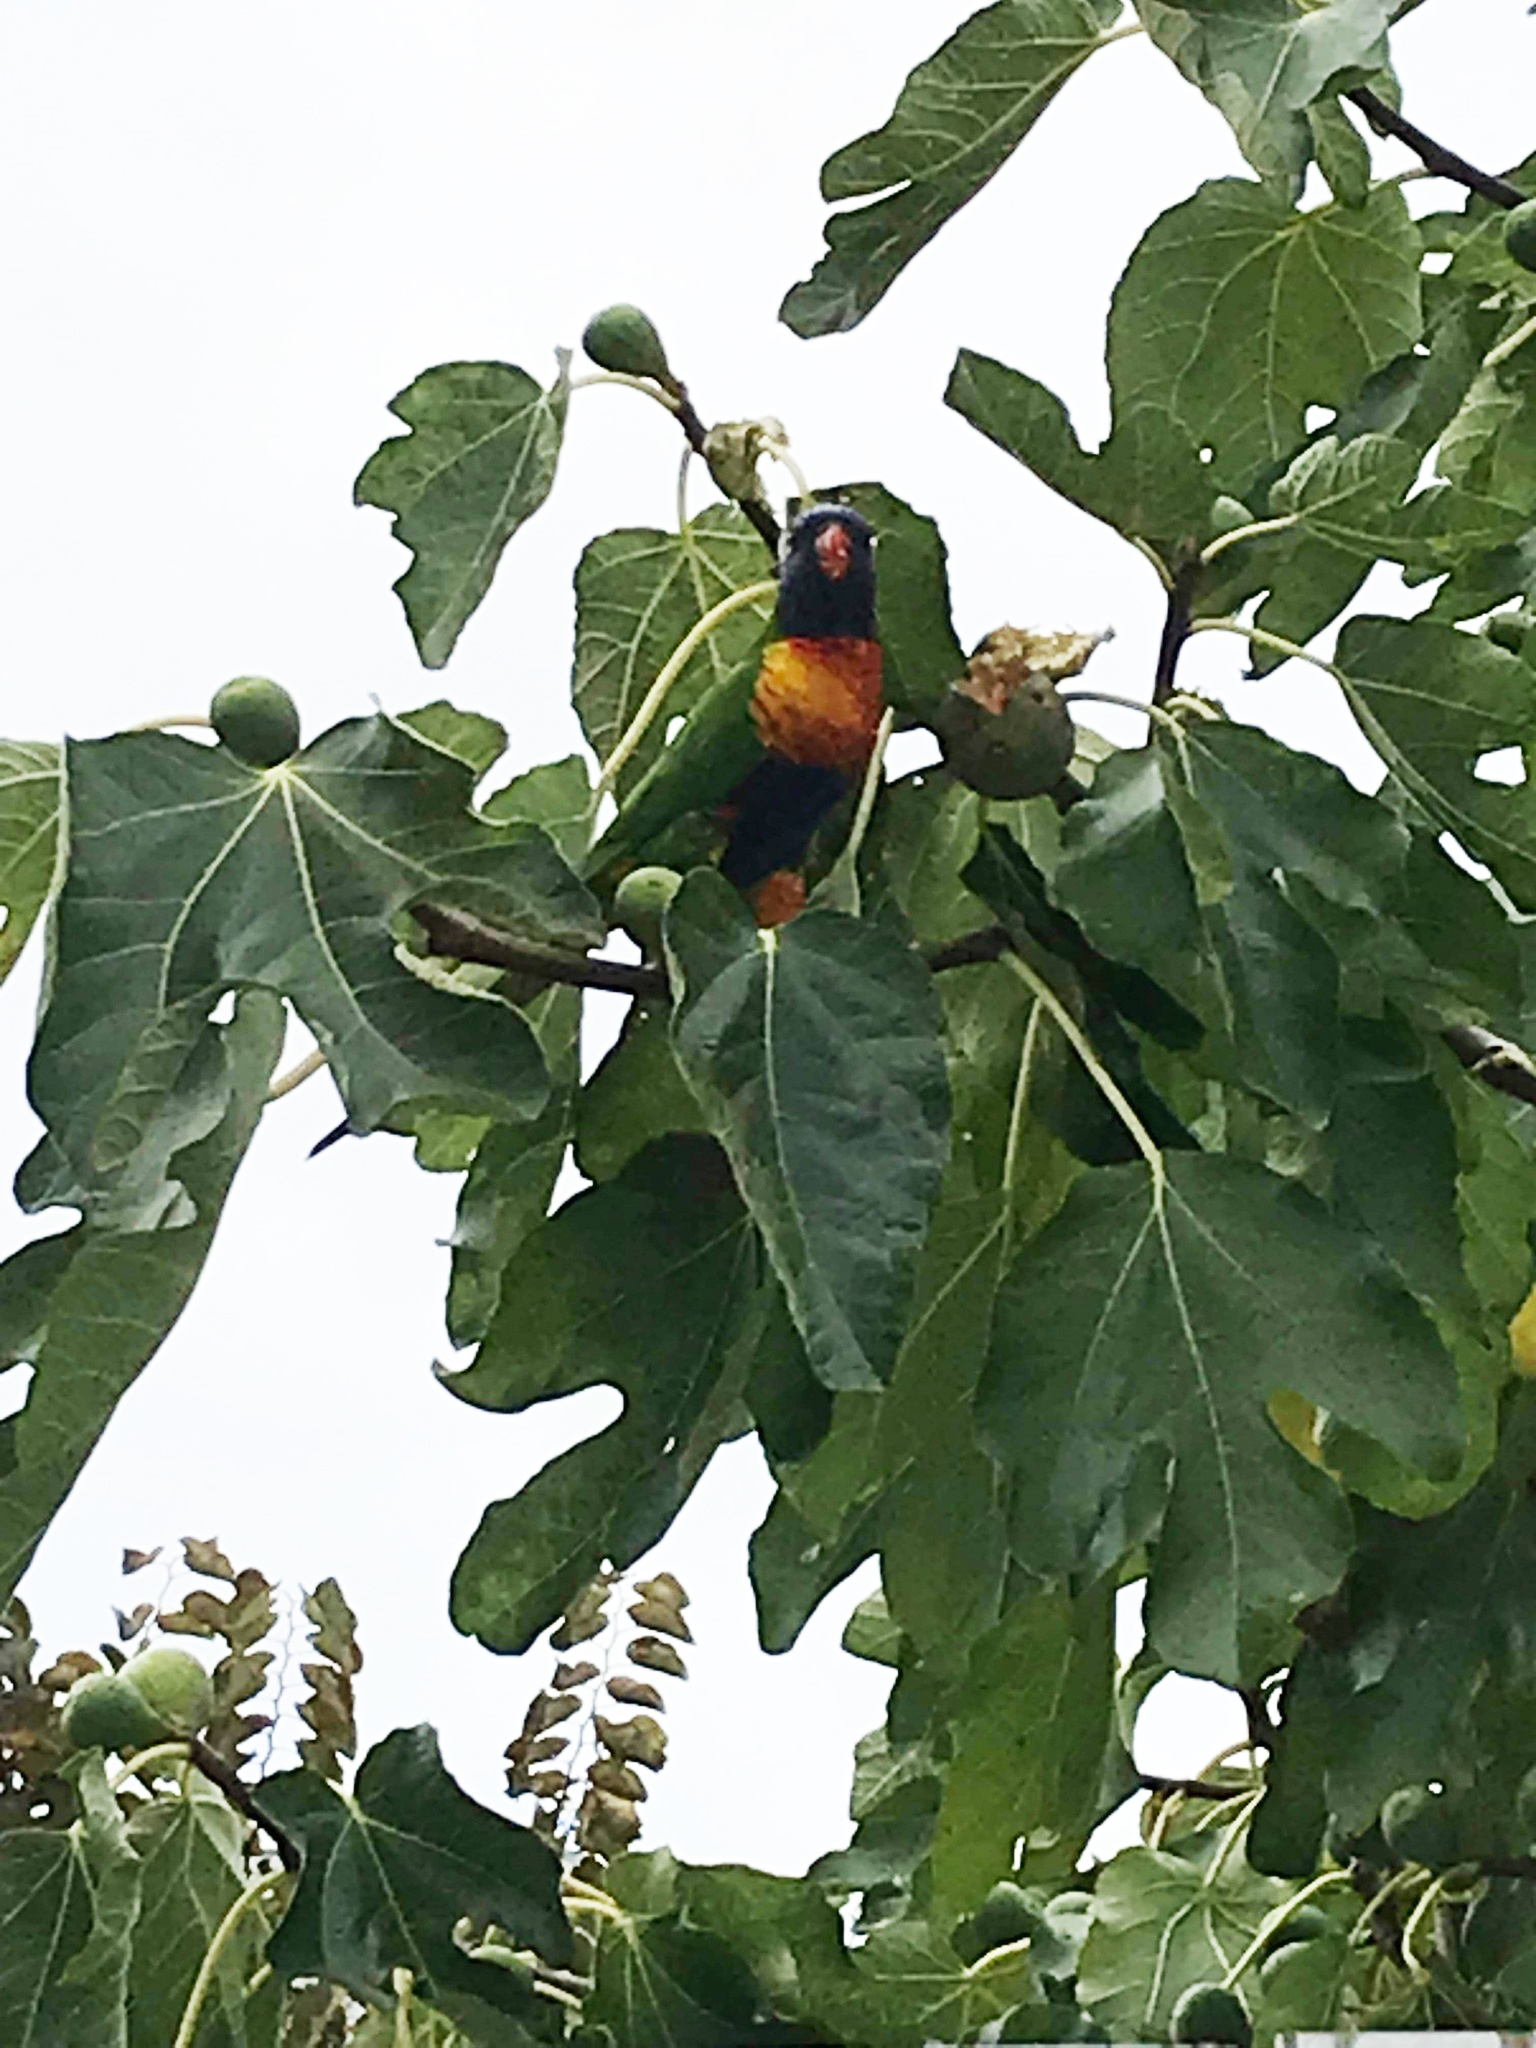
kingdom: Animalia
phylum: Chordata
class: Aves
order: Psittaciformes
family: Psittacidae
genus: Trichoglossus
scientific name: Trichoglossus haematodus
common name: Coconut lorikeet
